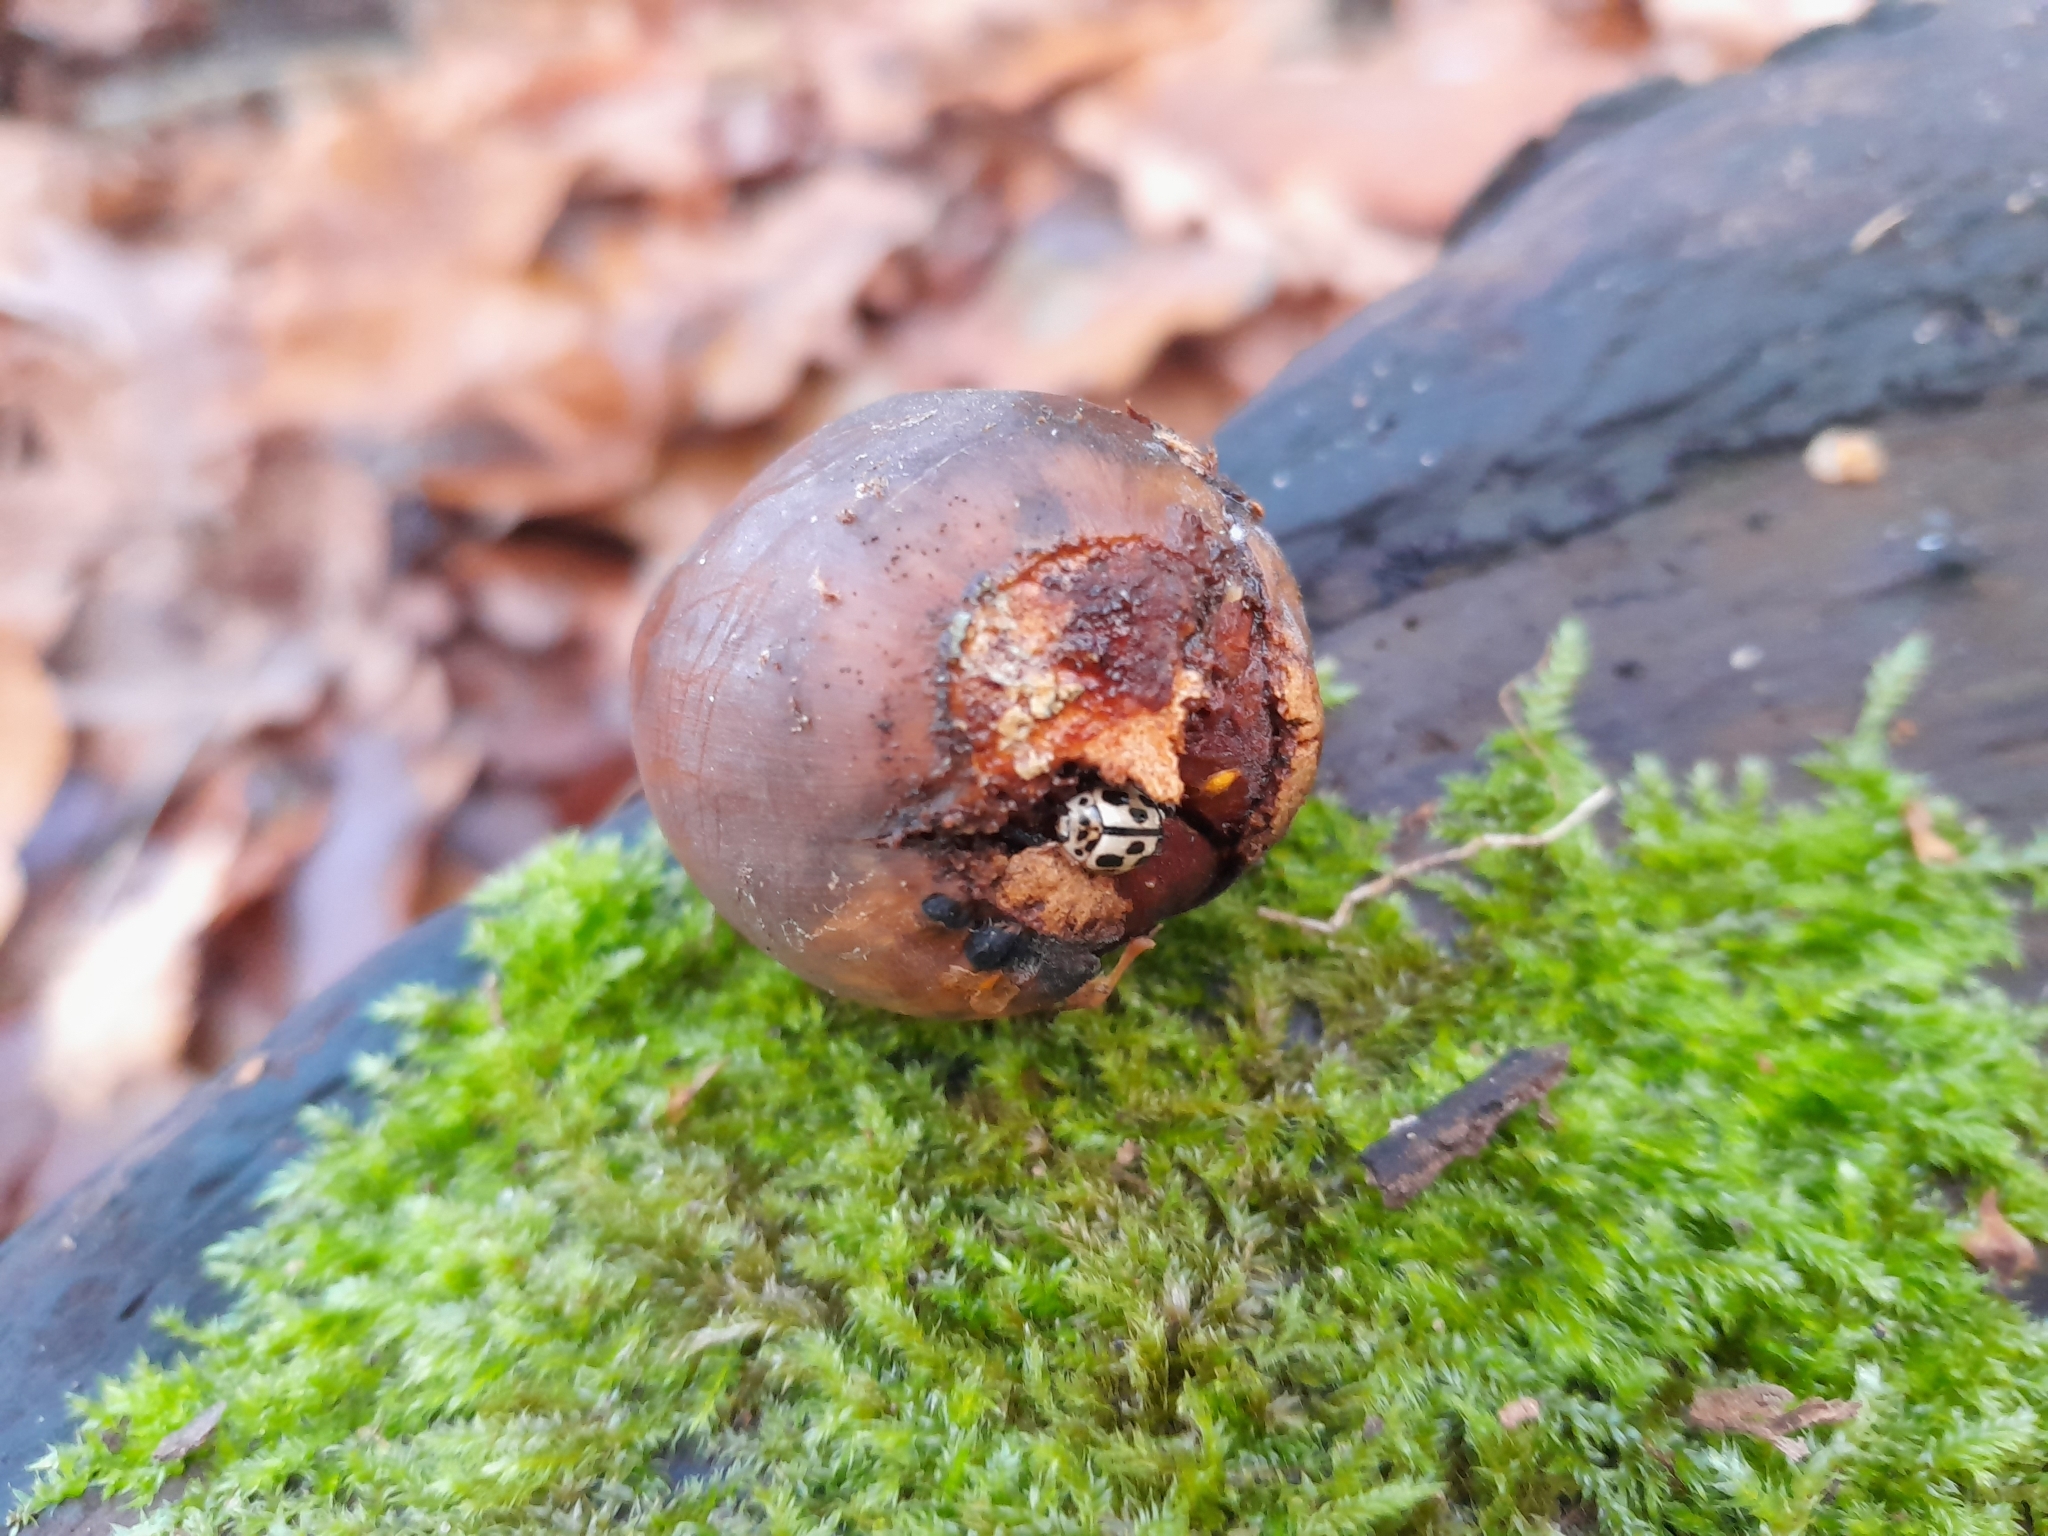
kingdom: Animalia
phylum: Arthropoda
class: Insecta
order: Coleoptera
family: Coccinellidae
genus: Propylaea
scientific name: Propylaea quatuordecimpunctata
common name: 14-spotted ladybird beetle
